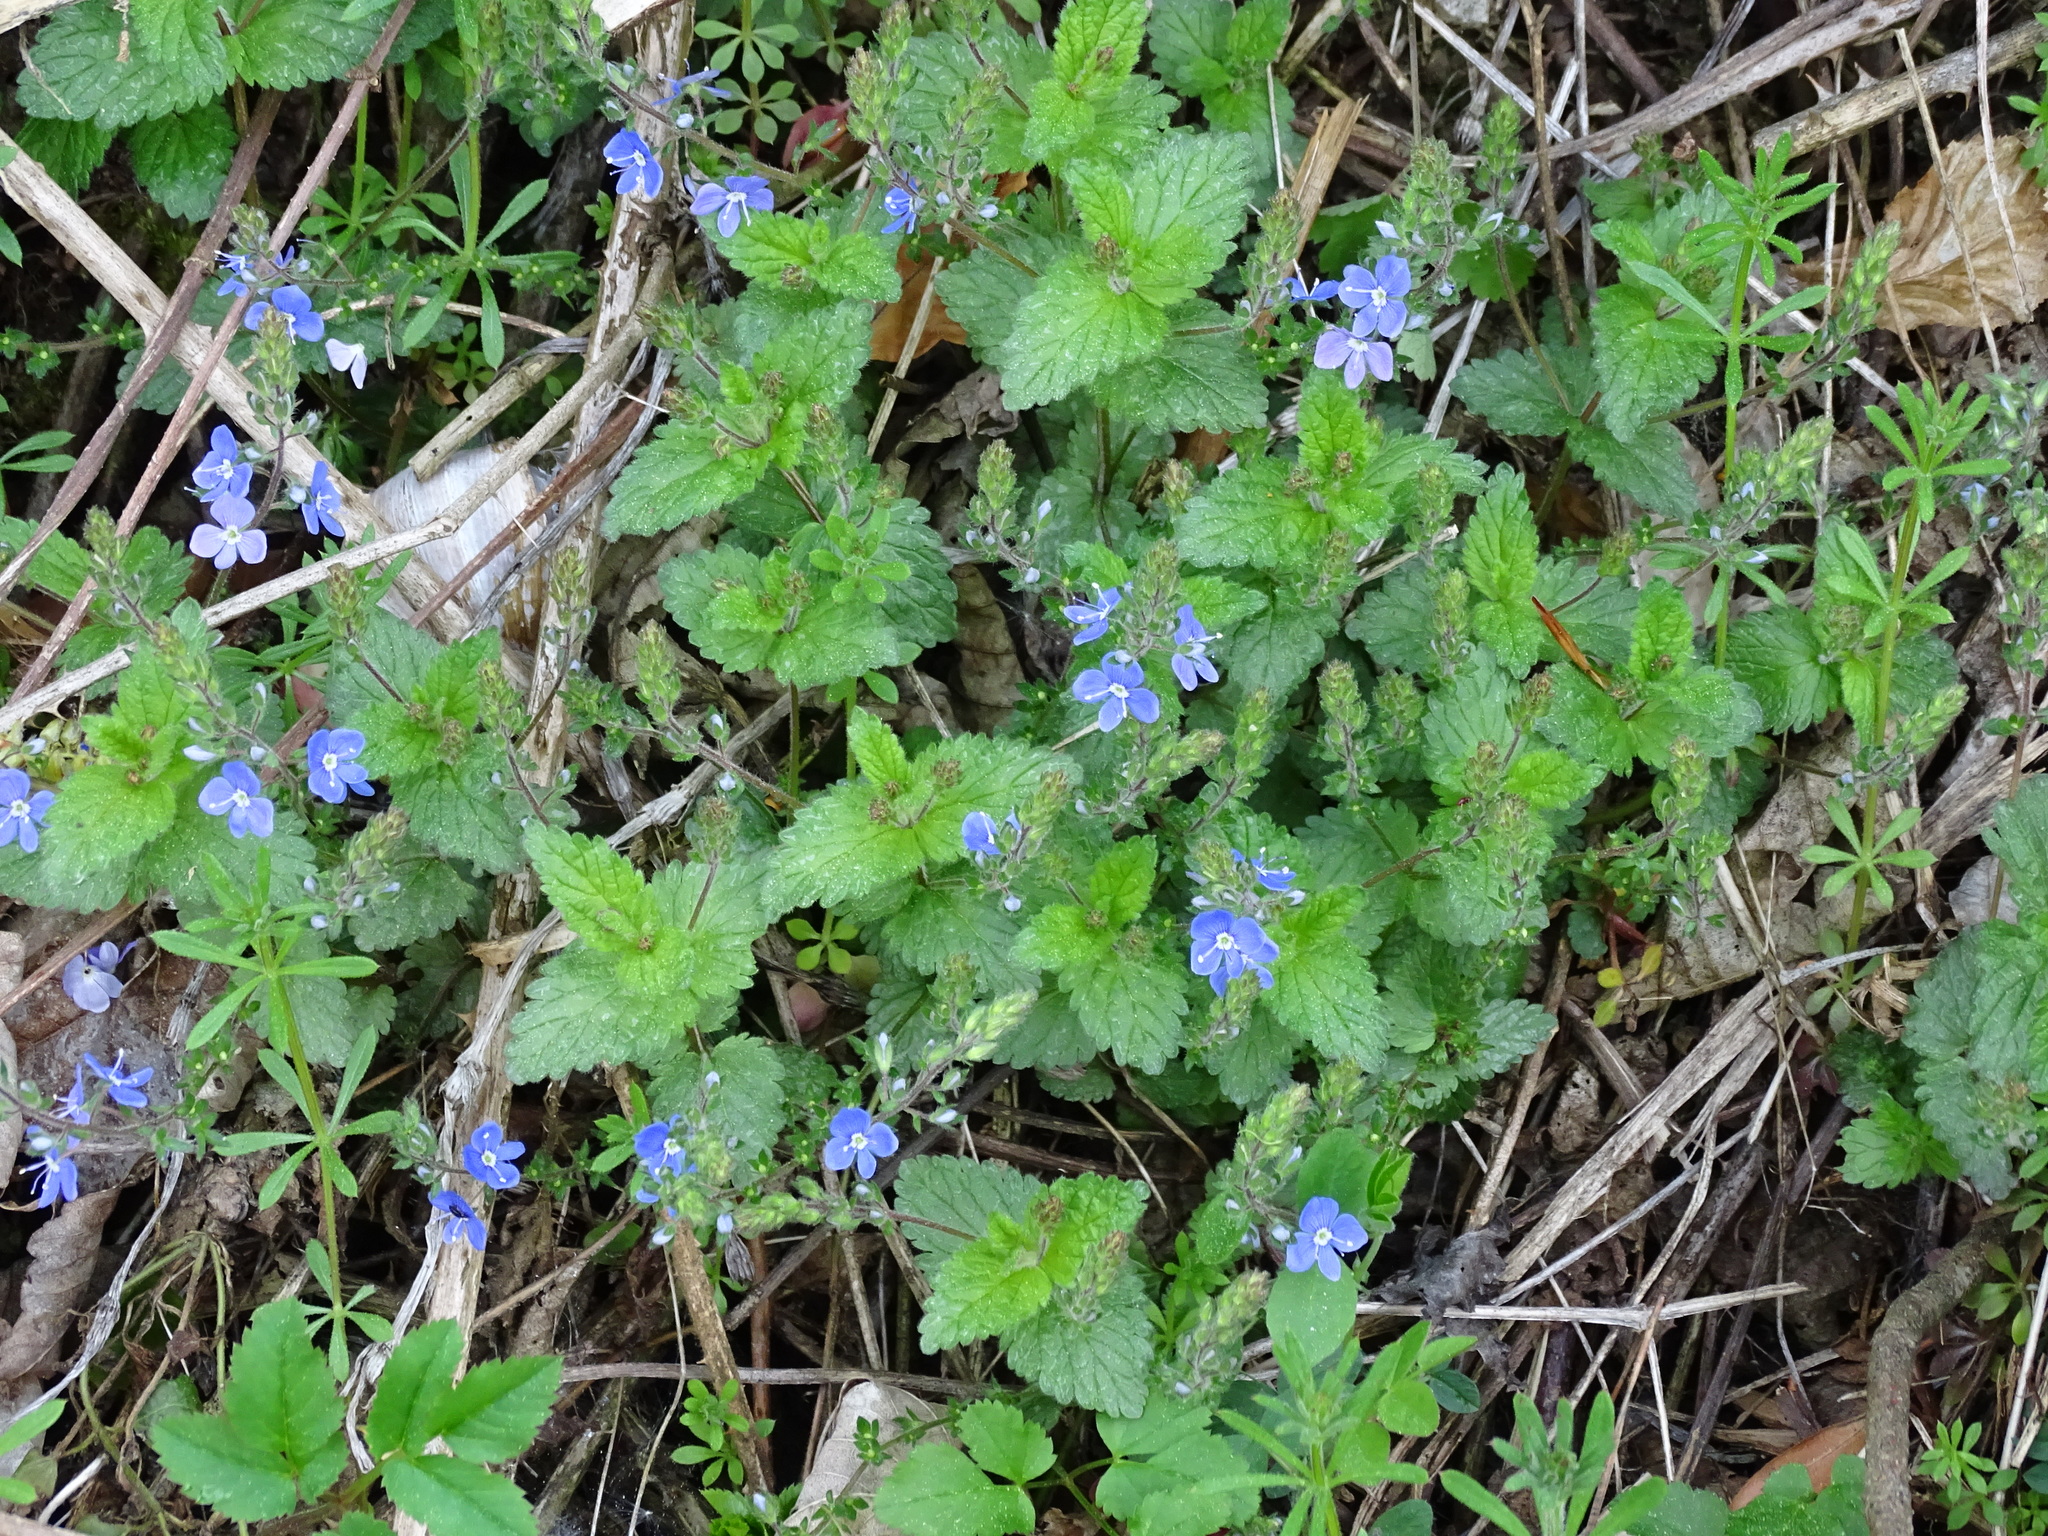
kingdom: Plantae
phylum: Tracheophyta
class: Magnoliopsida
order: Lamiales
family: Plantaginaceae
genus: Veronica
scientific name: Veronica chamaedrys
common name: Germander speedwell
